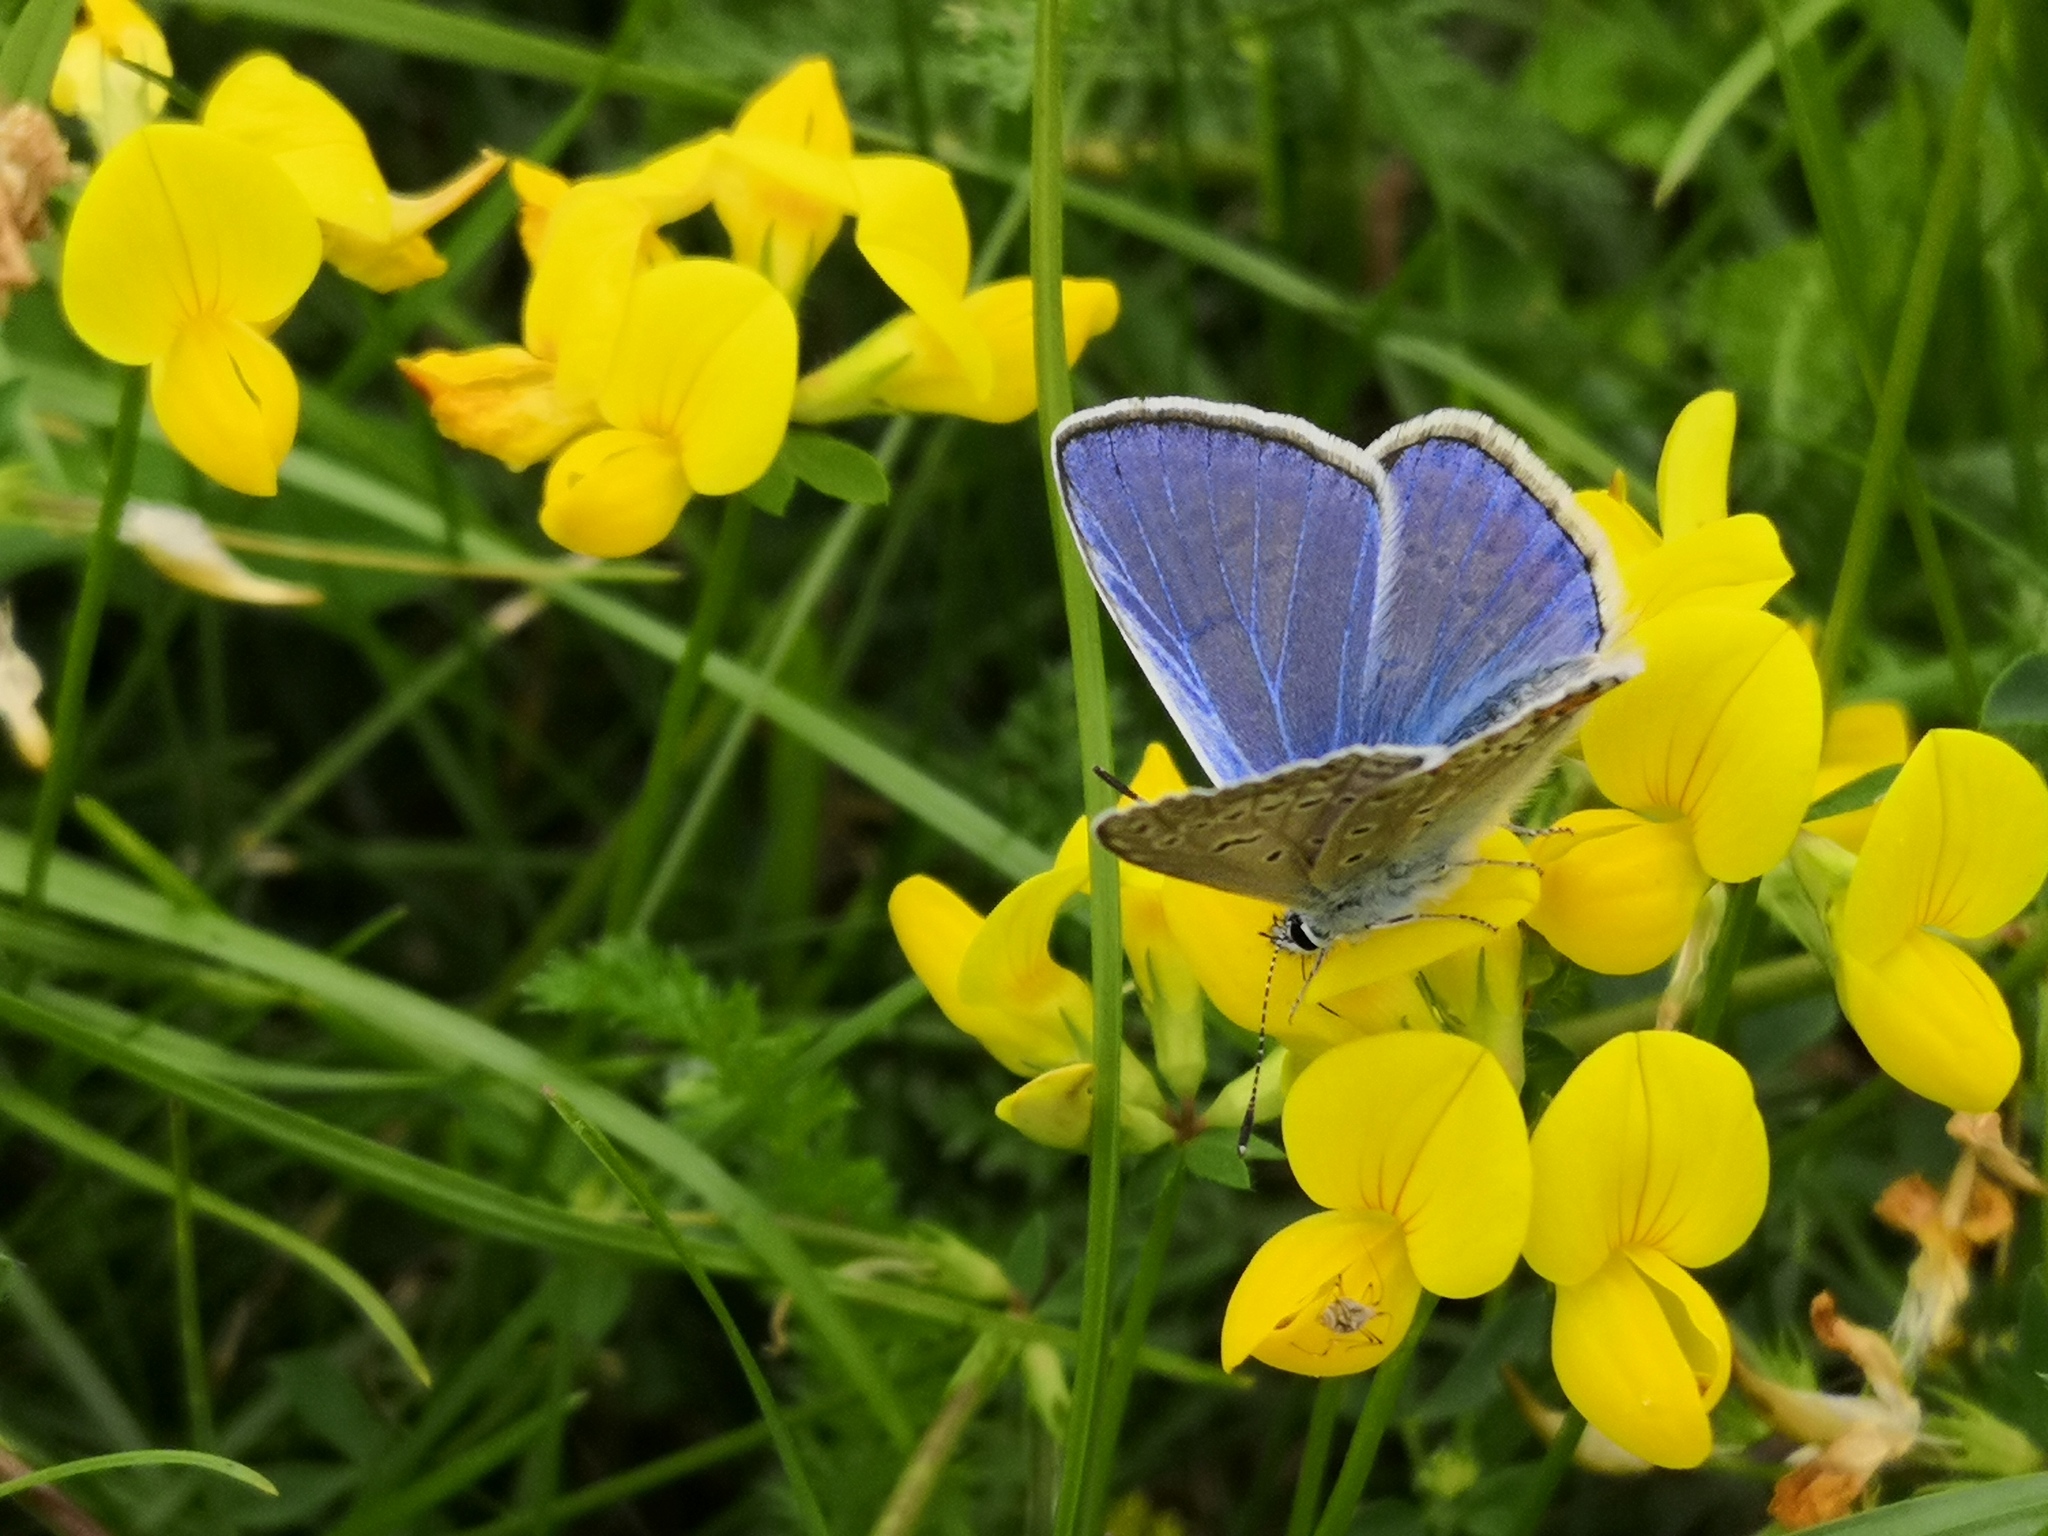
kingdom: Animalia
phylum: Arthropoda
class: Insecta
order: Lepidoptera
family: Lycaenidae
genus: Polyommatus
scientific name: Polyommatus icarus
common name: Common blue
